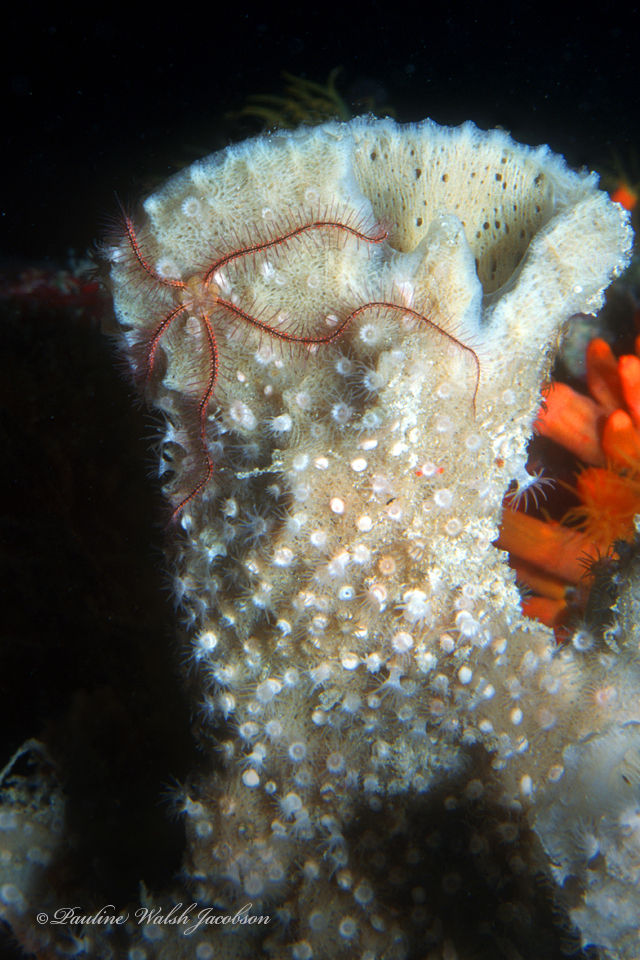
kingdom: Animalia
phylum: Echinodermata
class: Ophiuroidea
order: Amphilepidida
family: Ophiotrichidae
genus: Ophiothrix
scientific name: Ophiothrix suensonii
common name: Sponge brittle star
